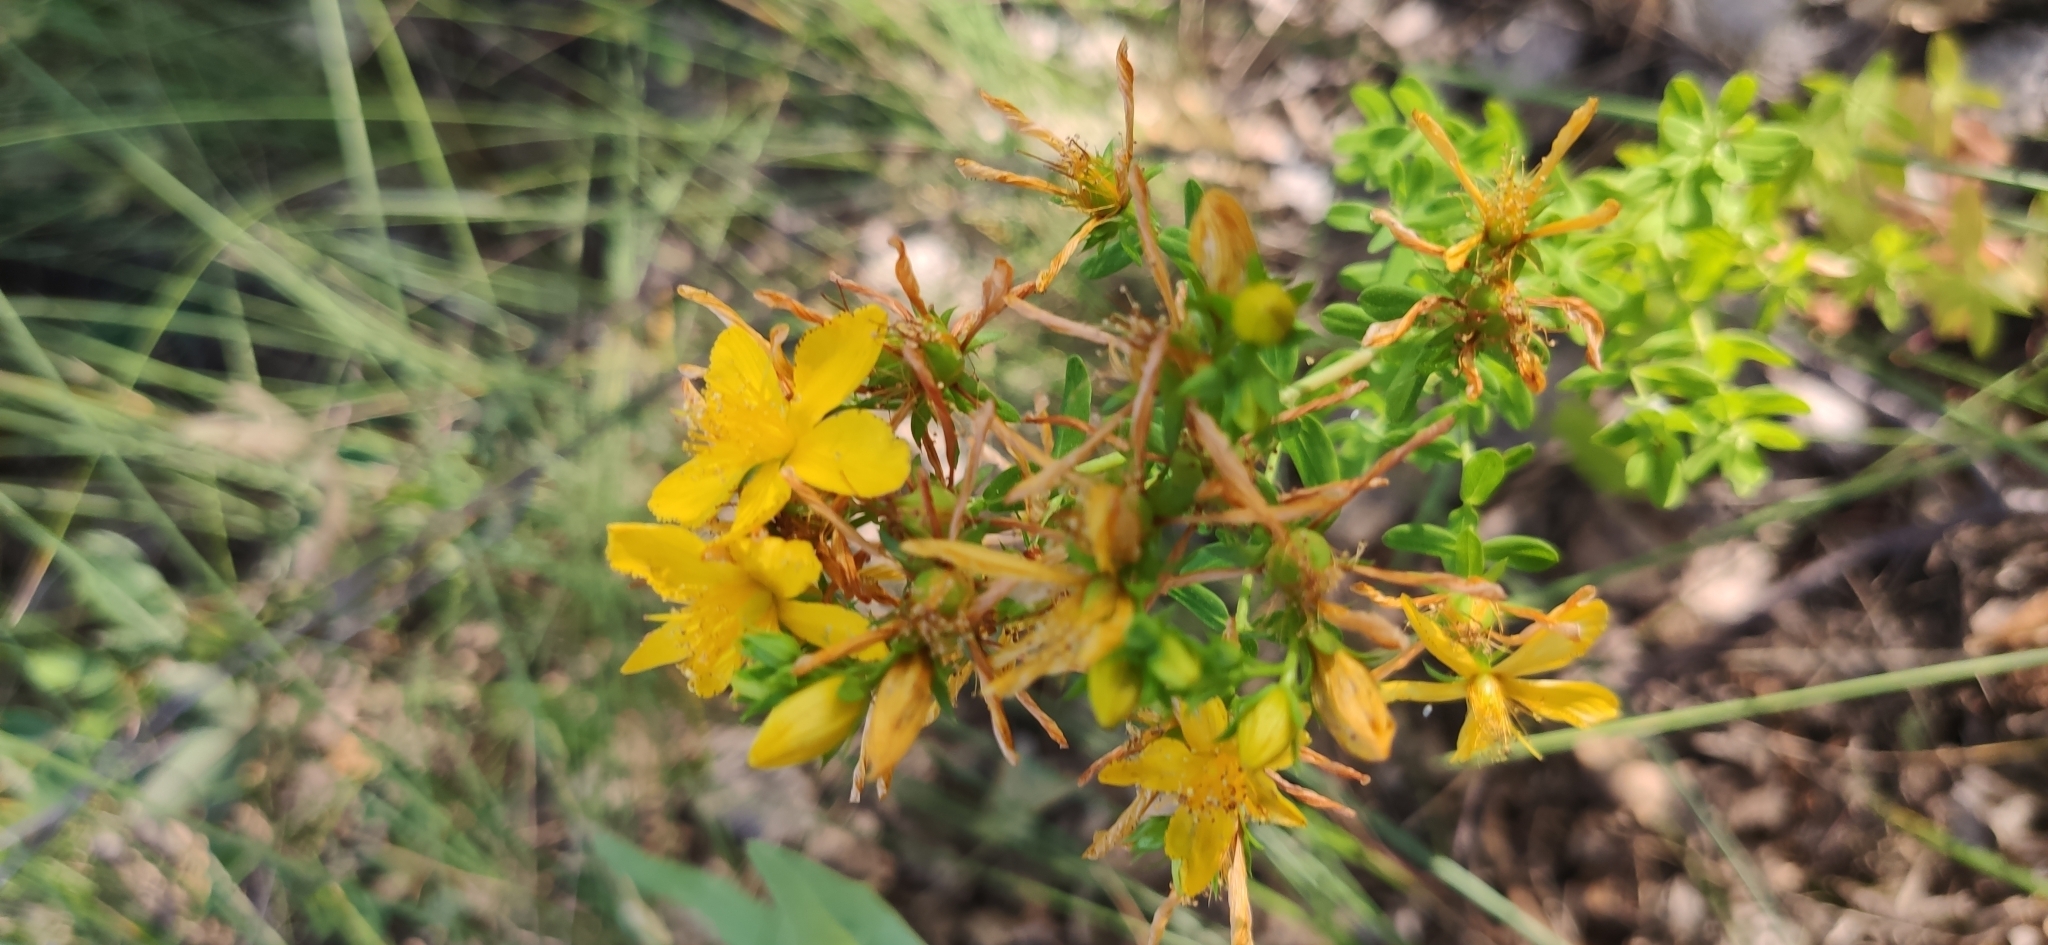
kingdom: Plantae
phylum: Tracheophyta
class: Magnoliopsida
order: Malpighiales
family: Hypericaceae
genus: Hypericum
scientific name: Hypericum perforatum
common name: Common st. johnswort
